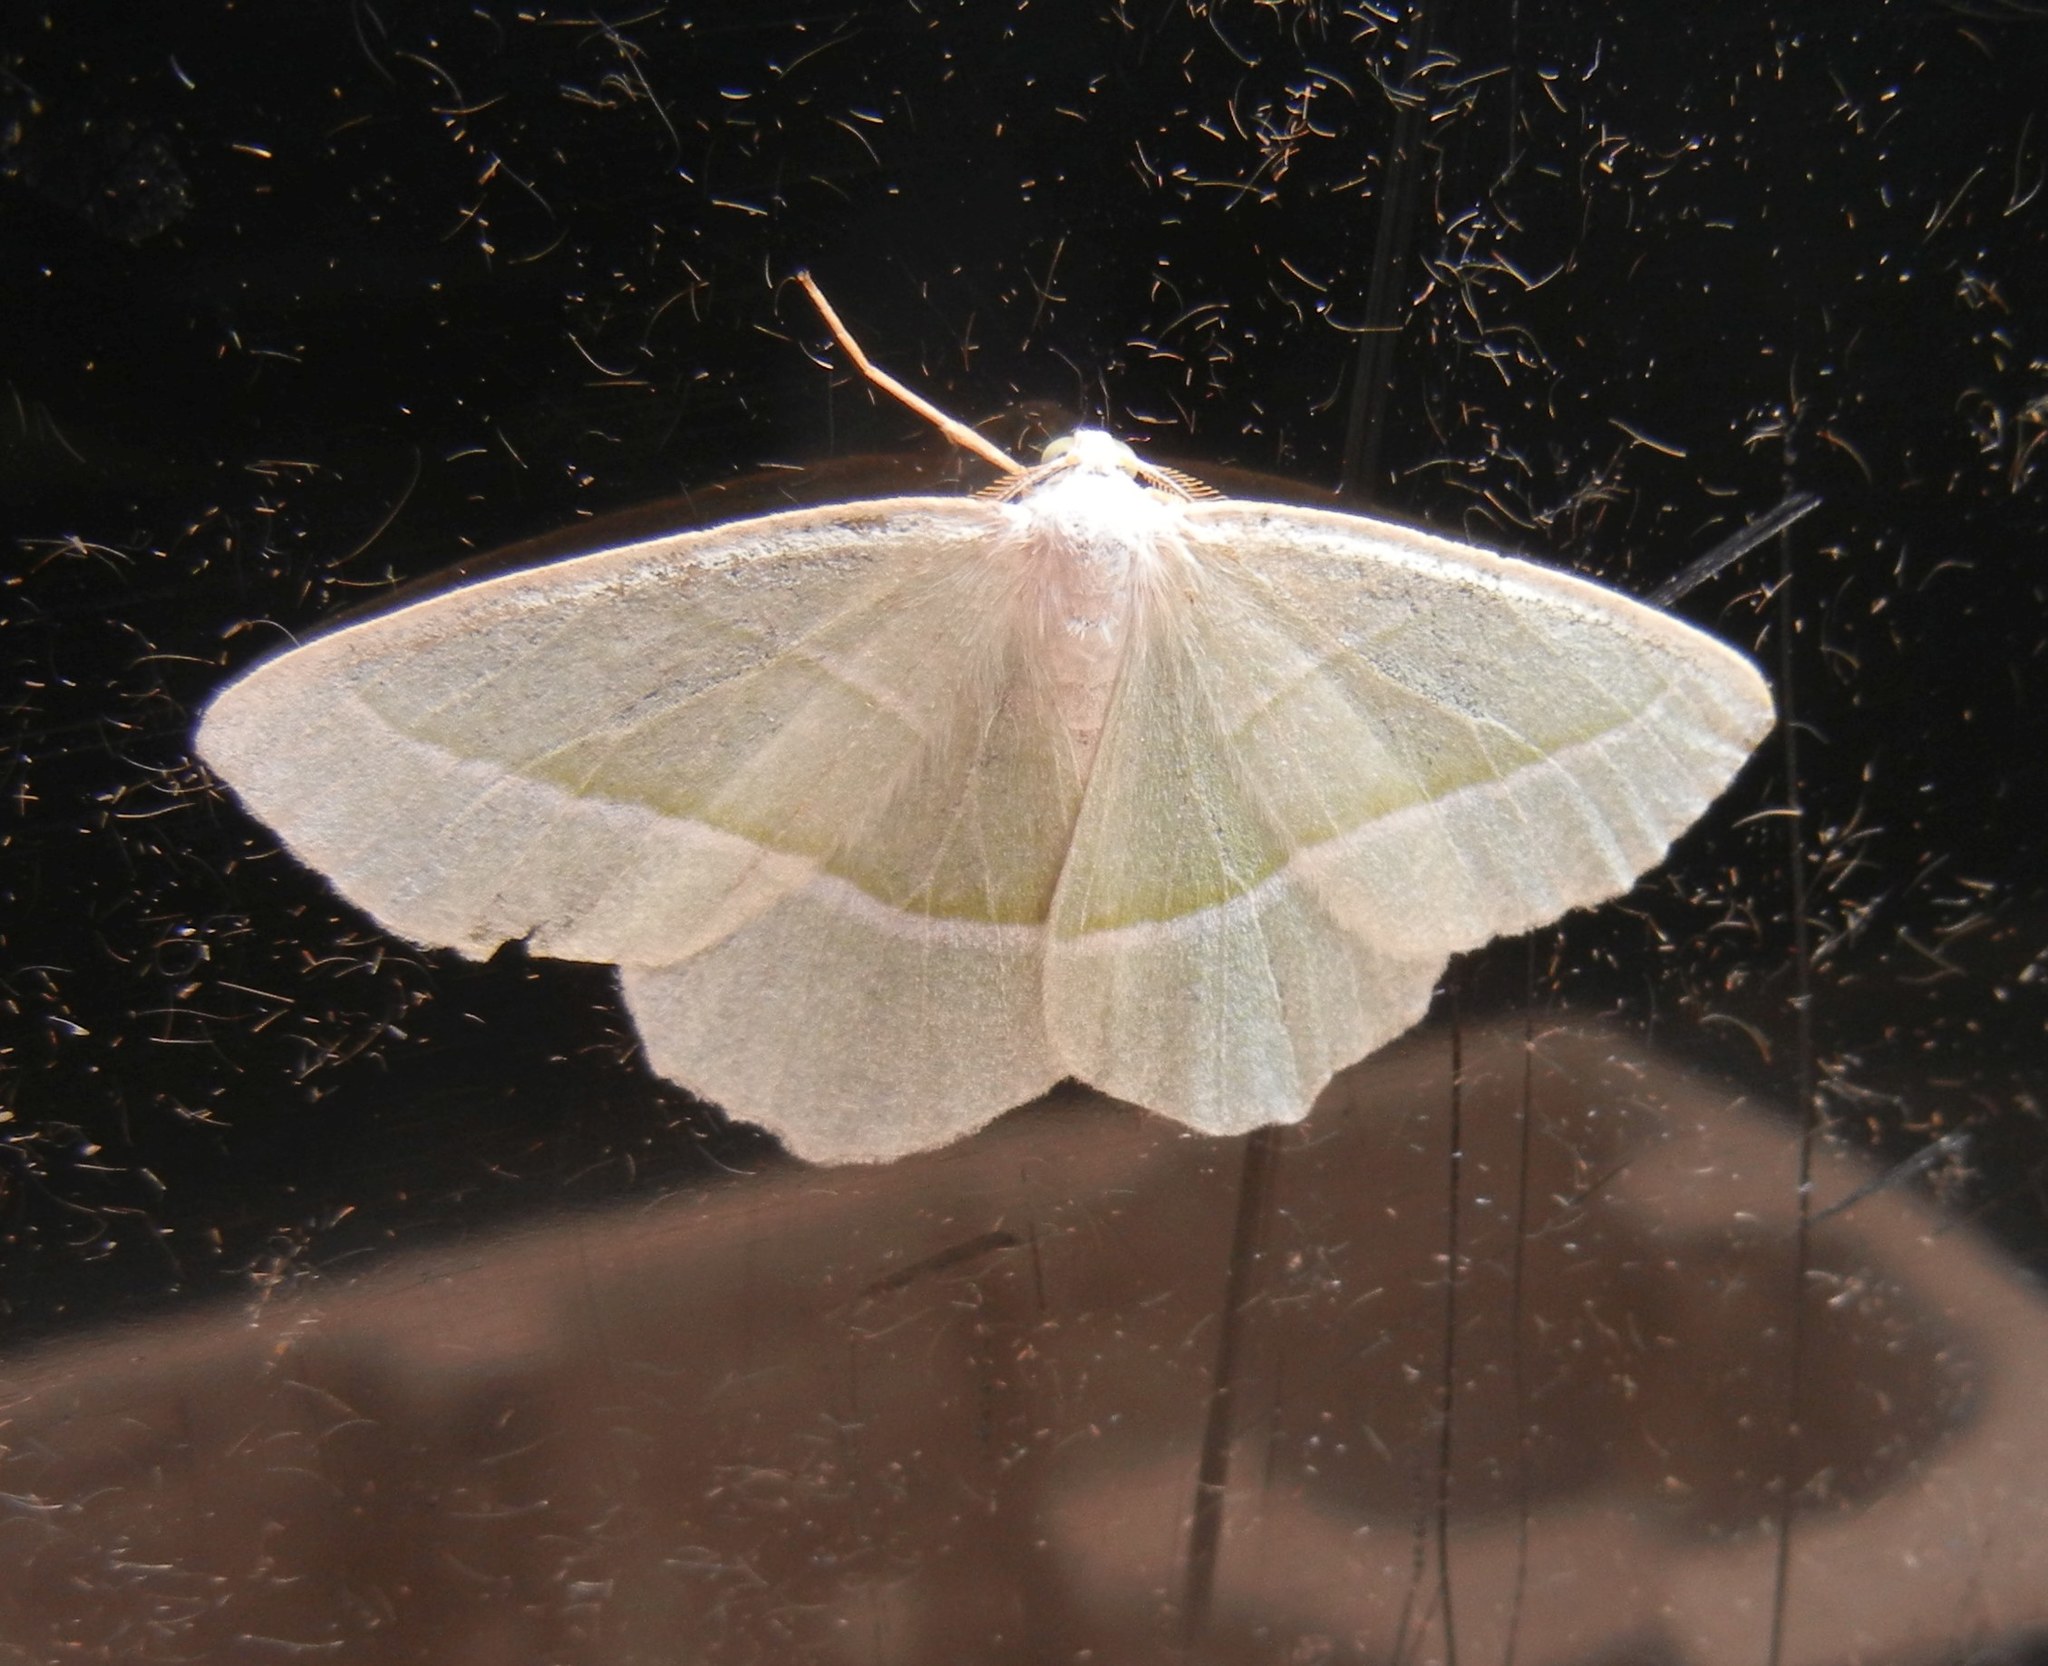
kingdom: Animalia
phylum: Arthropoda
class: Insecta
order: Lepidoptera
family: Geometridae
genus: Campaea
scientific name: Campaea margaritaria
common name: Light emerald
